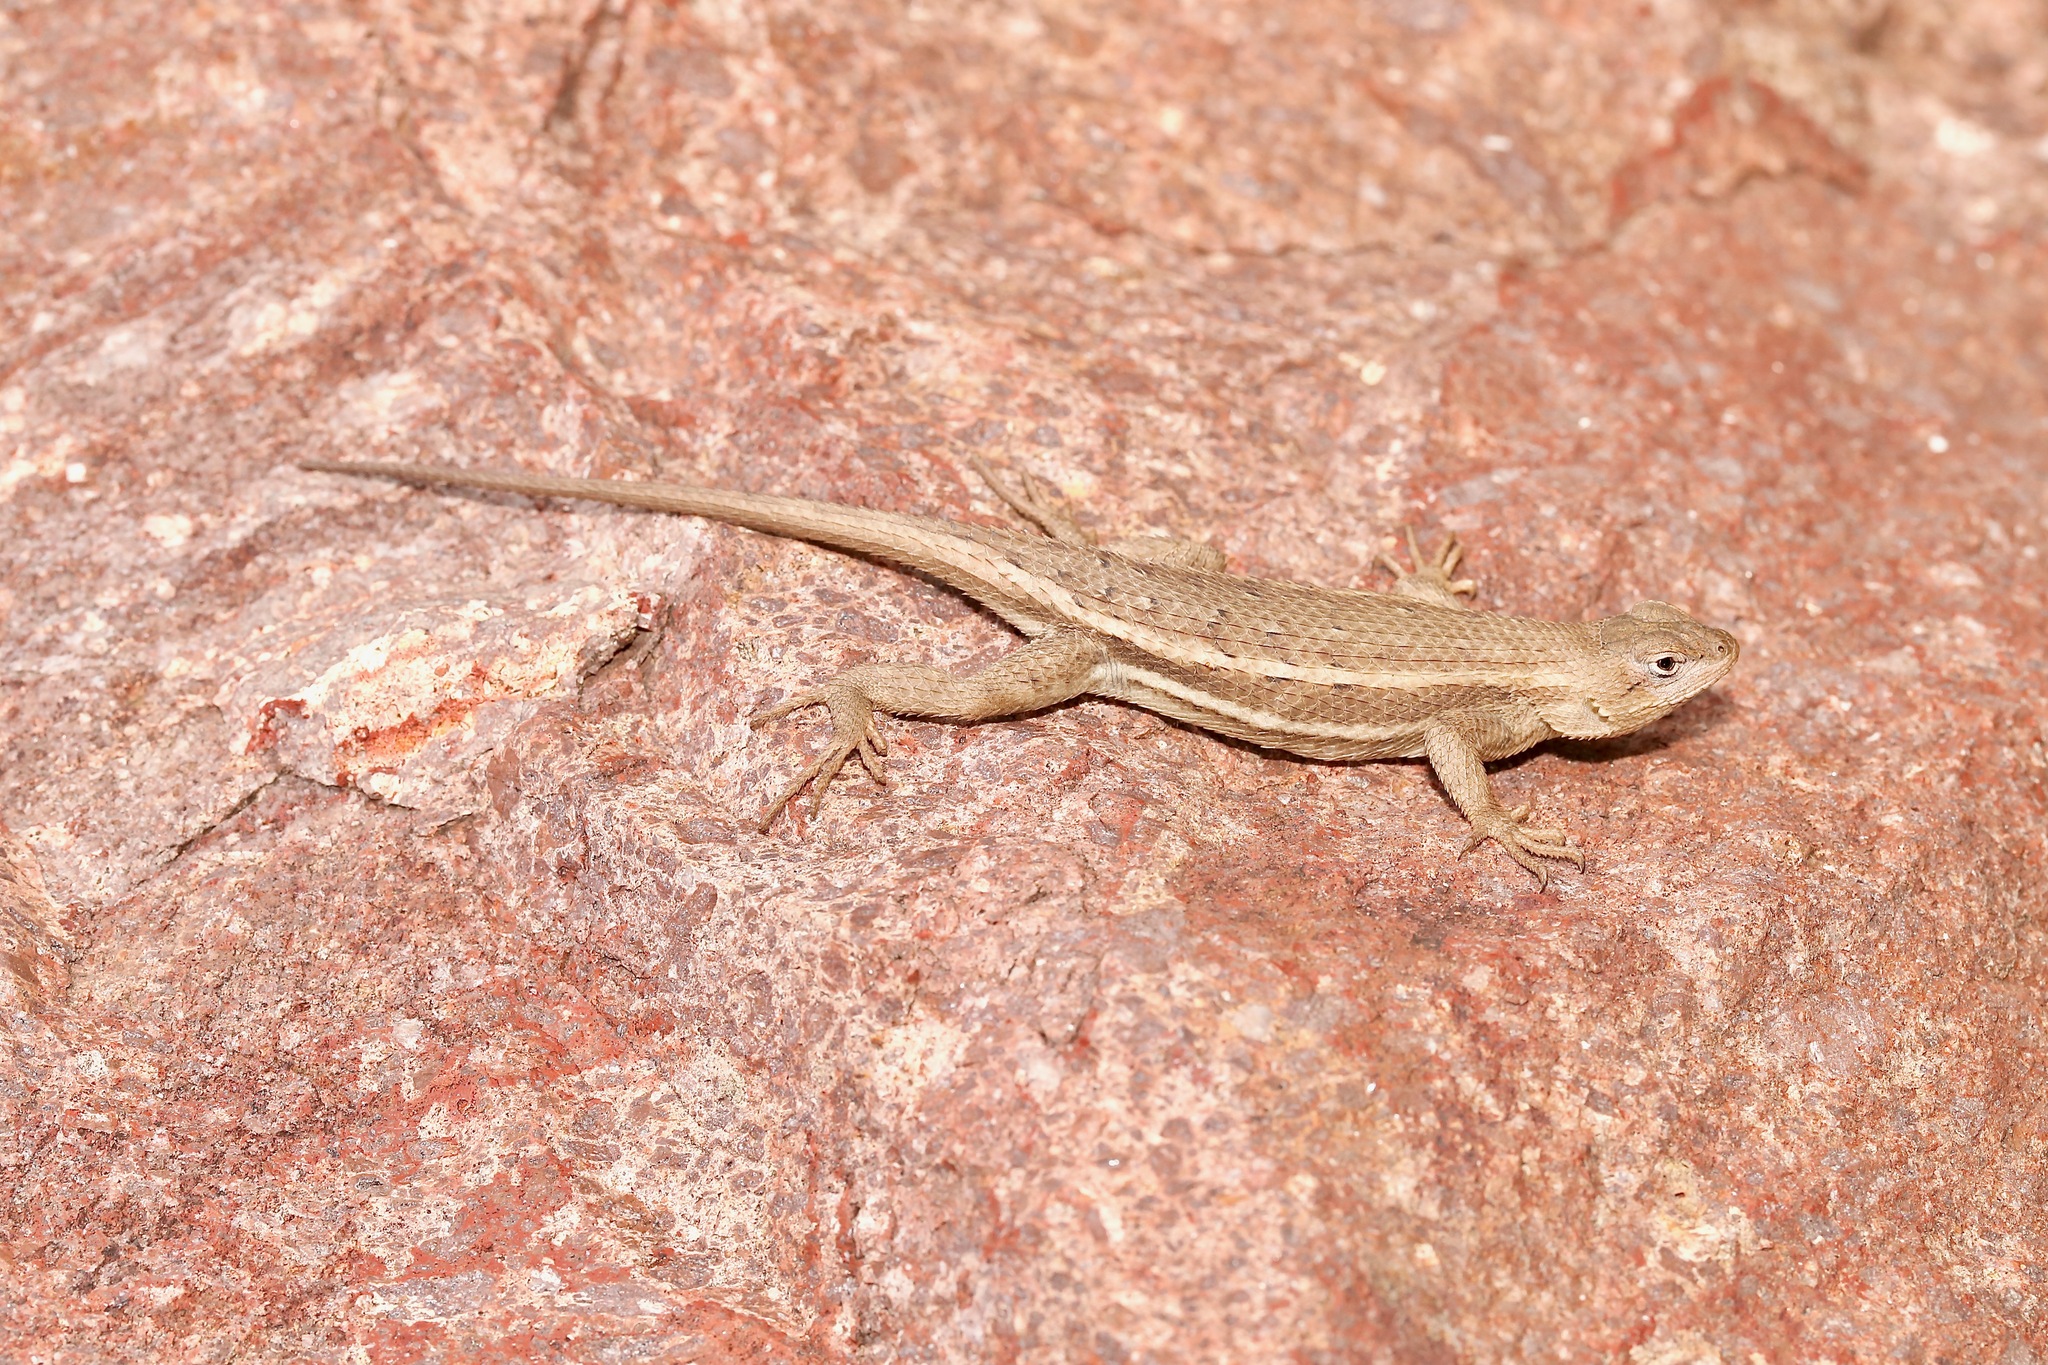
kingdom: Animalia
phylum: Chordata
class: Squamata
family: Phrynosomatidae
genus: Sceloporus
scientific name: Sceloporus virgatus
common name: Striped plateau lizard
